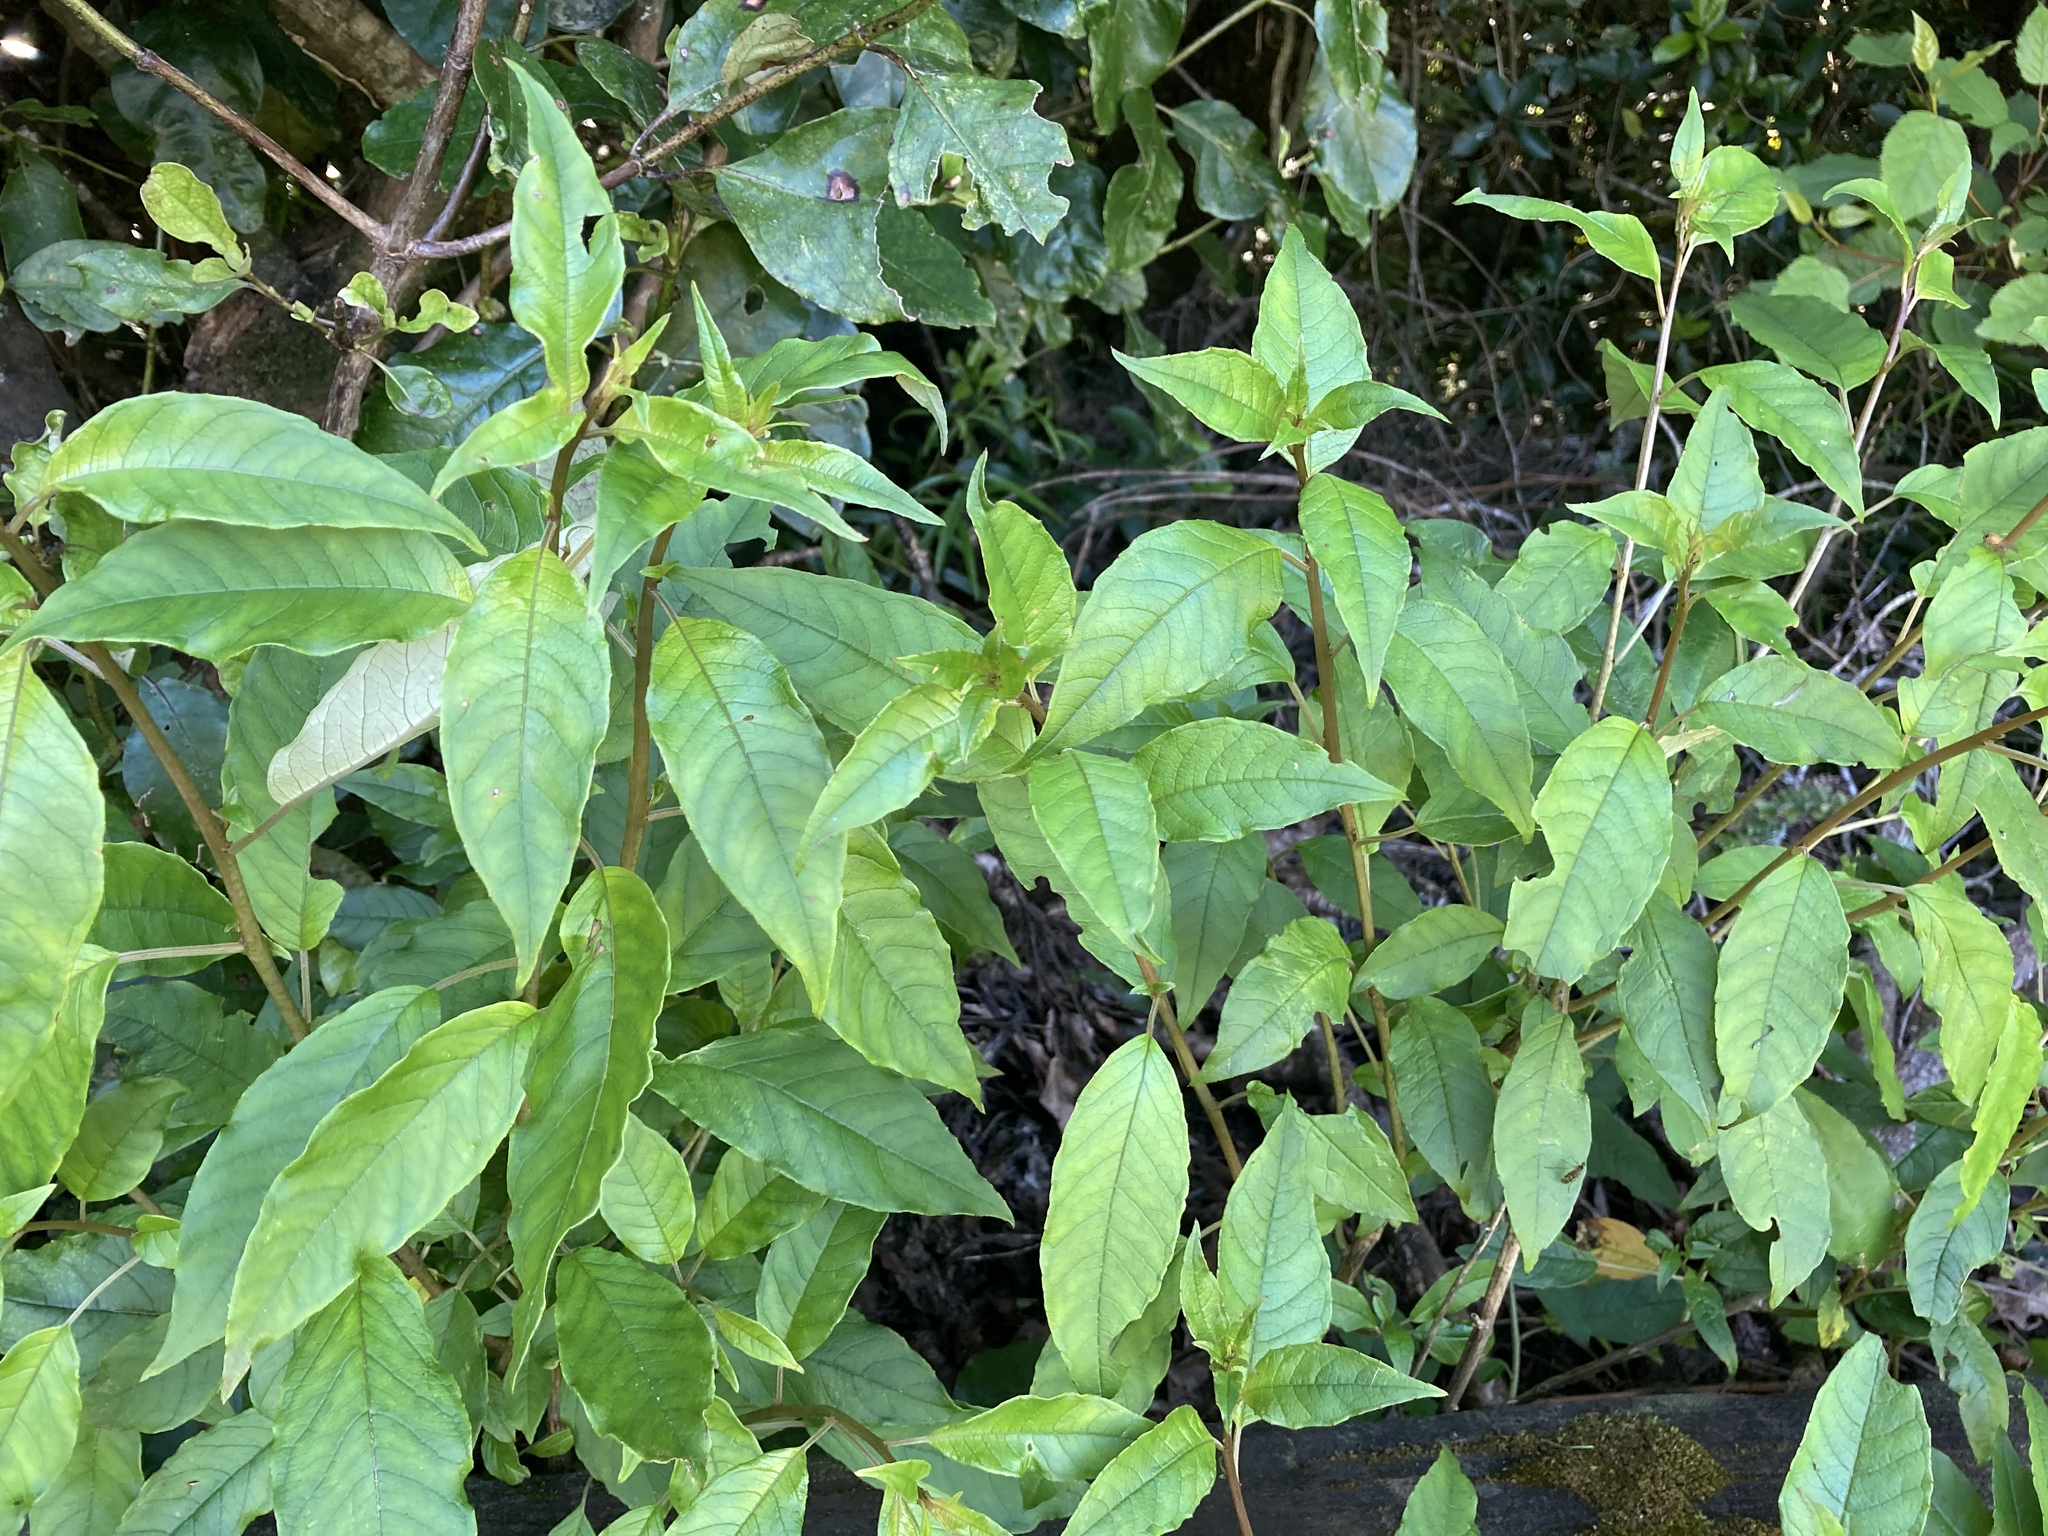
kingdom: Plantae
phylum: Tracheophyta
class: Magnoliopsida
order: Myrtales
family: Onagraceae
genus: Fuchsia
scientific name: Fuchsia excorticata
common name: Tree fuchsia
